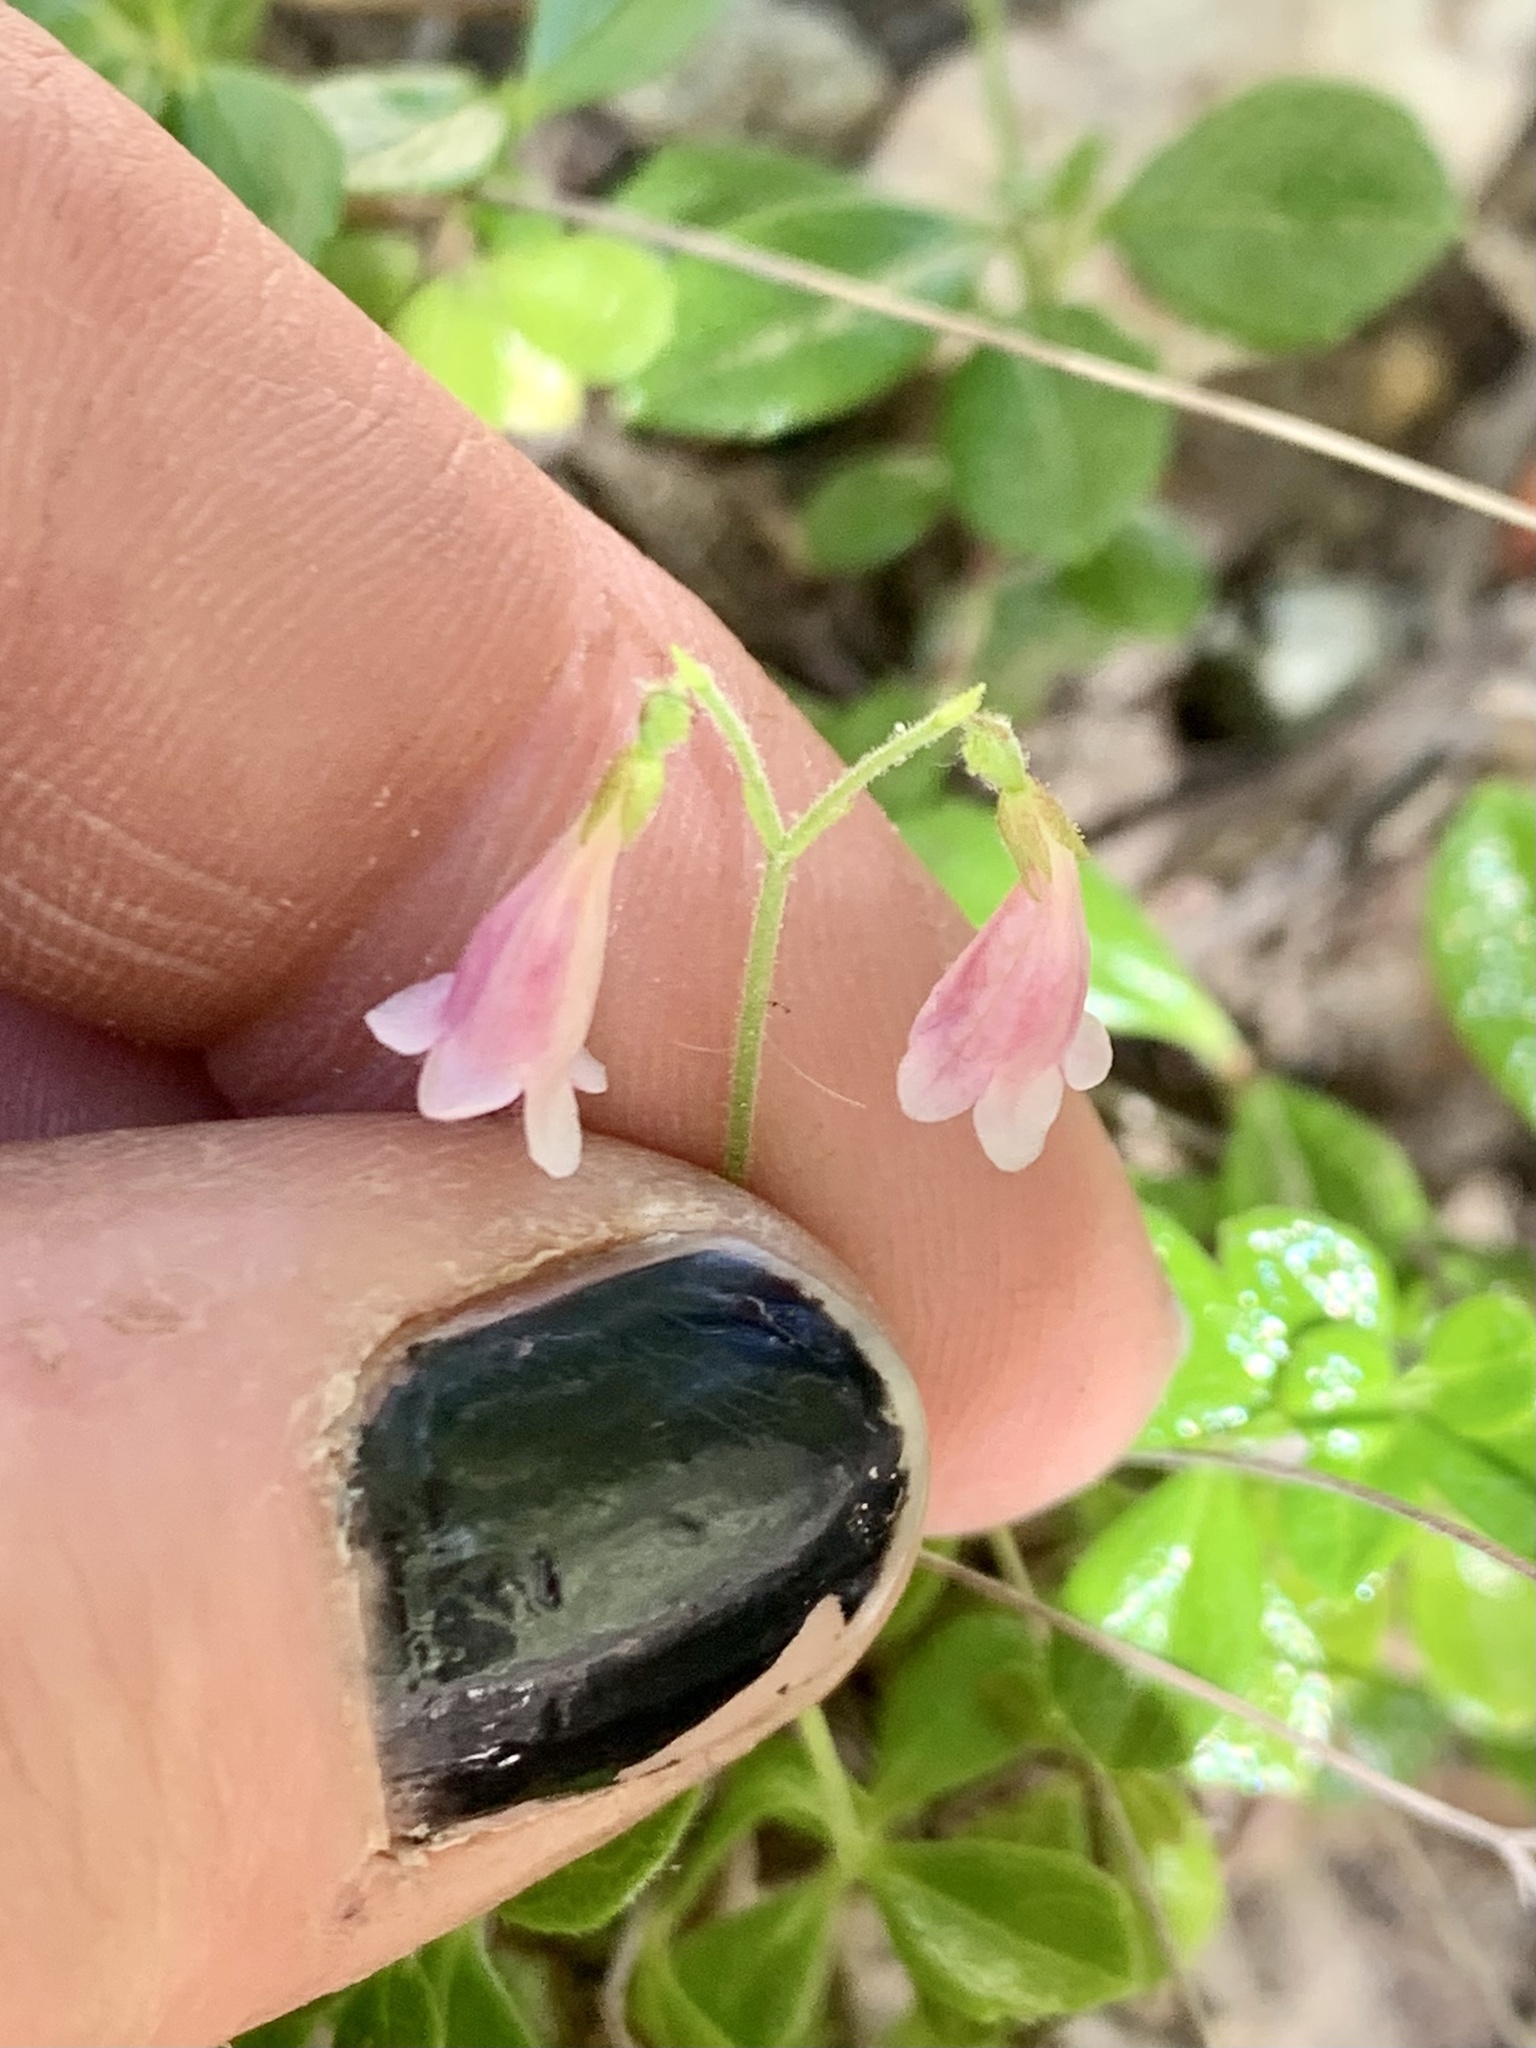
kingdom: Plantae
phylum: Tracheophyta
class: Magnoliopsida
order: Dipsacales
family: Caprifoliaceae
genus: Linnaea
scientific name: Linnaea borealis
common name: Twinflower
